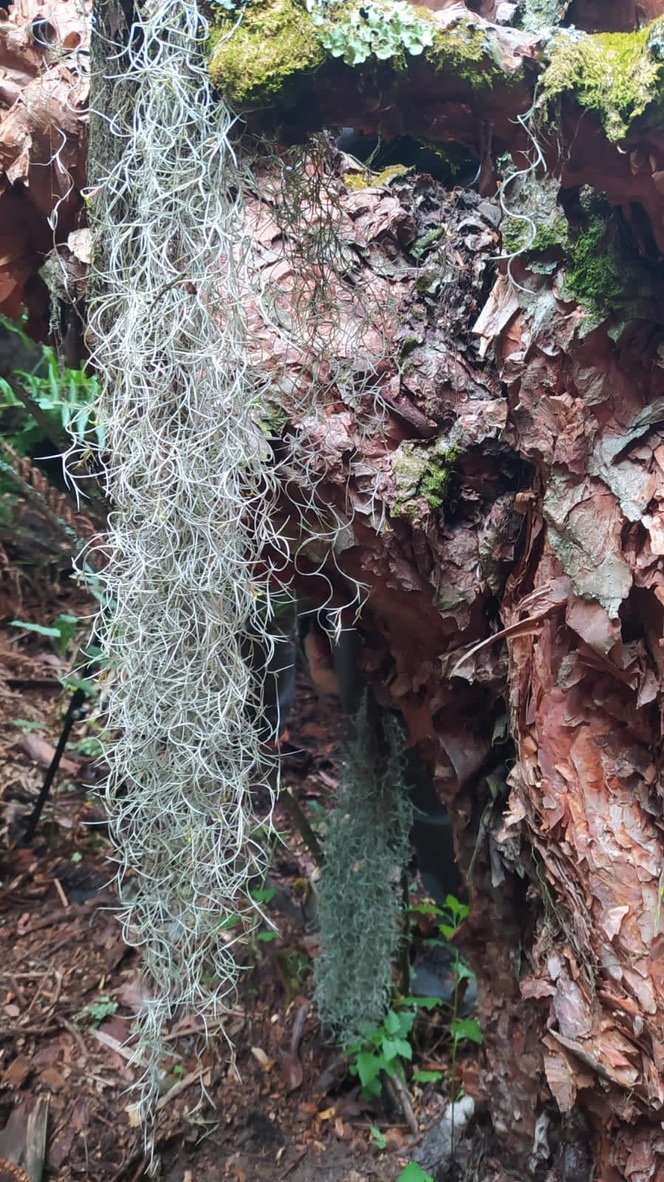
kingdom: Plantae
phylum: Tracheophyta
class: Liliopsida
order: Poales
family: Bromeliaceae
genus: Tillandsia
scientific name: Tillandsia usneoides
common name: Spanish moss
